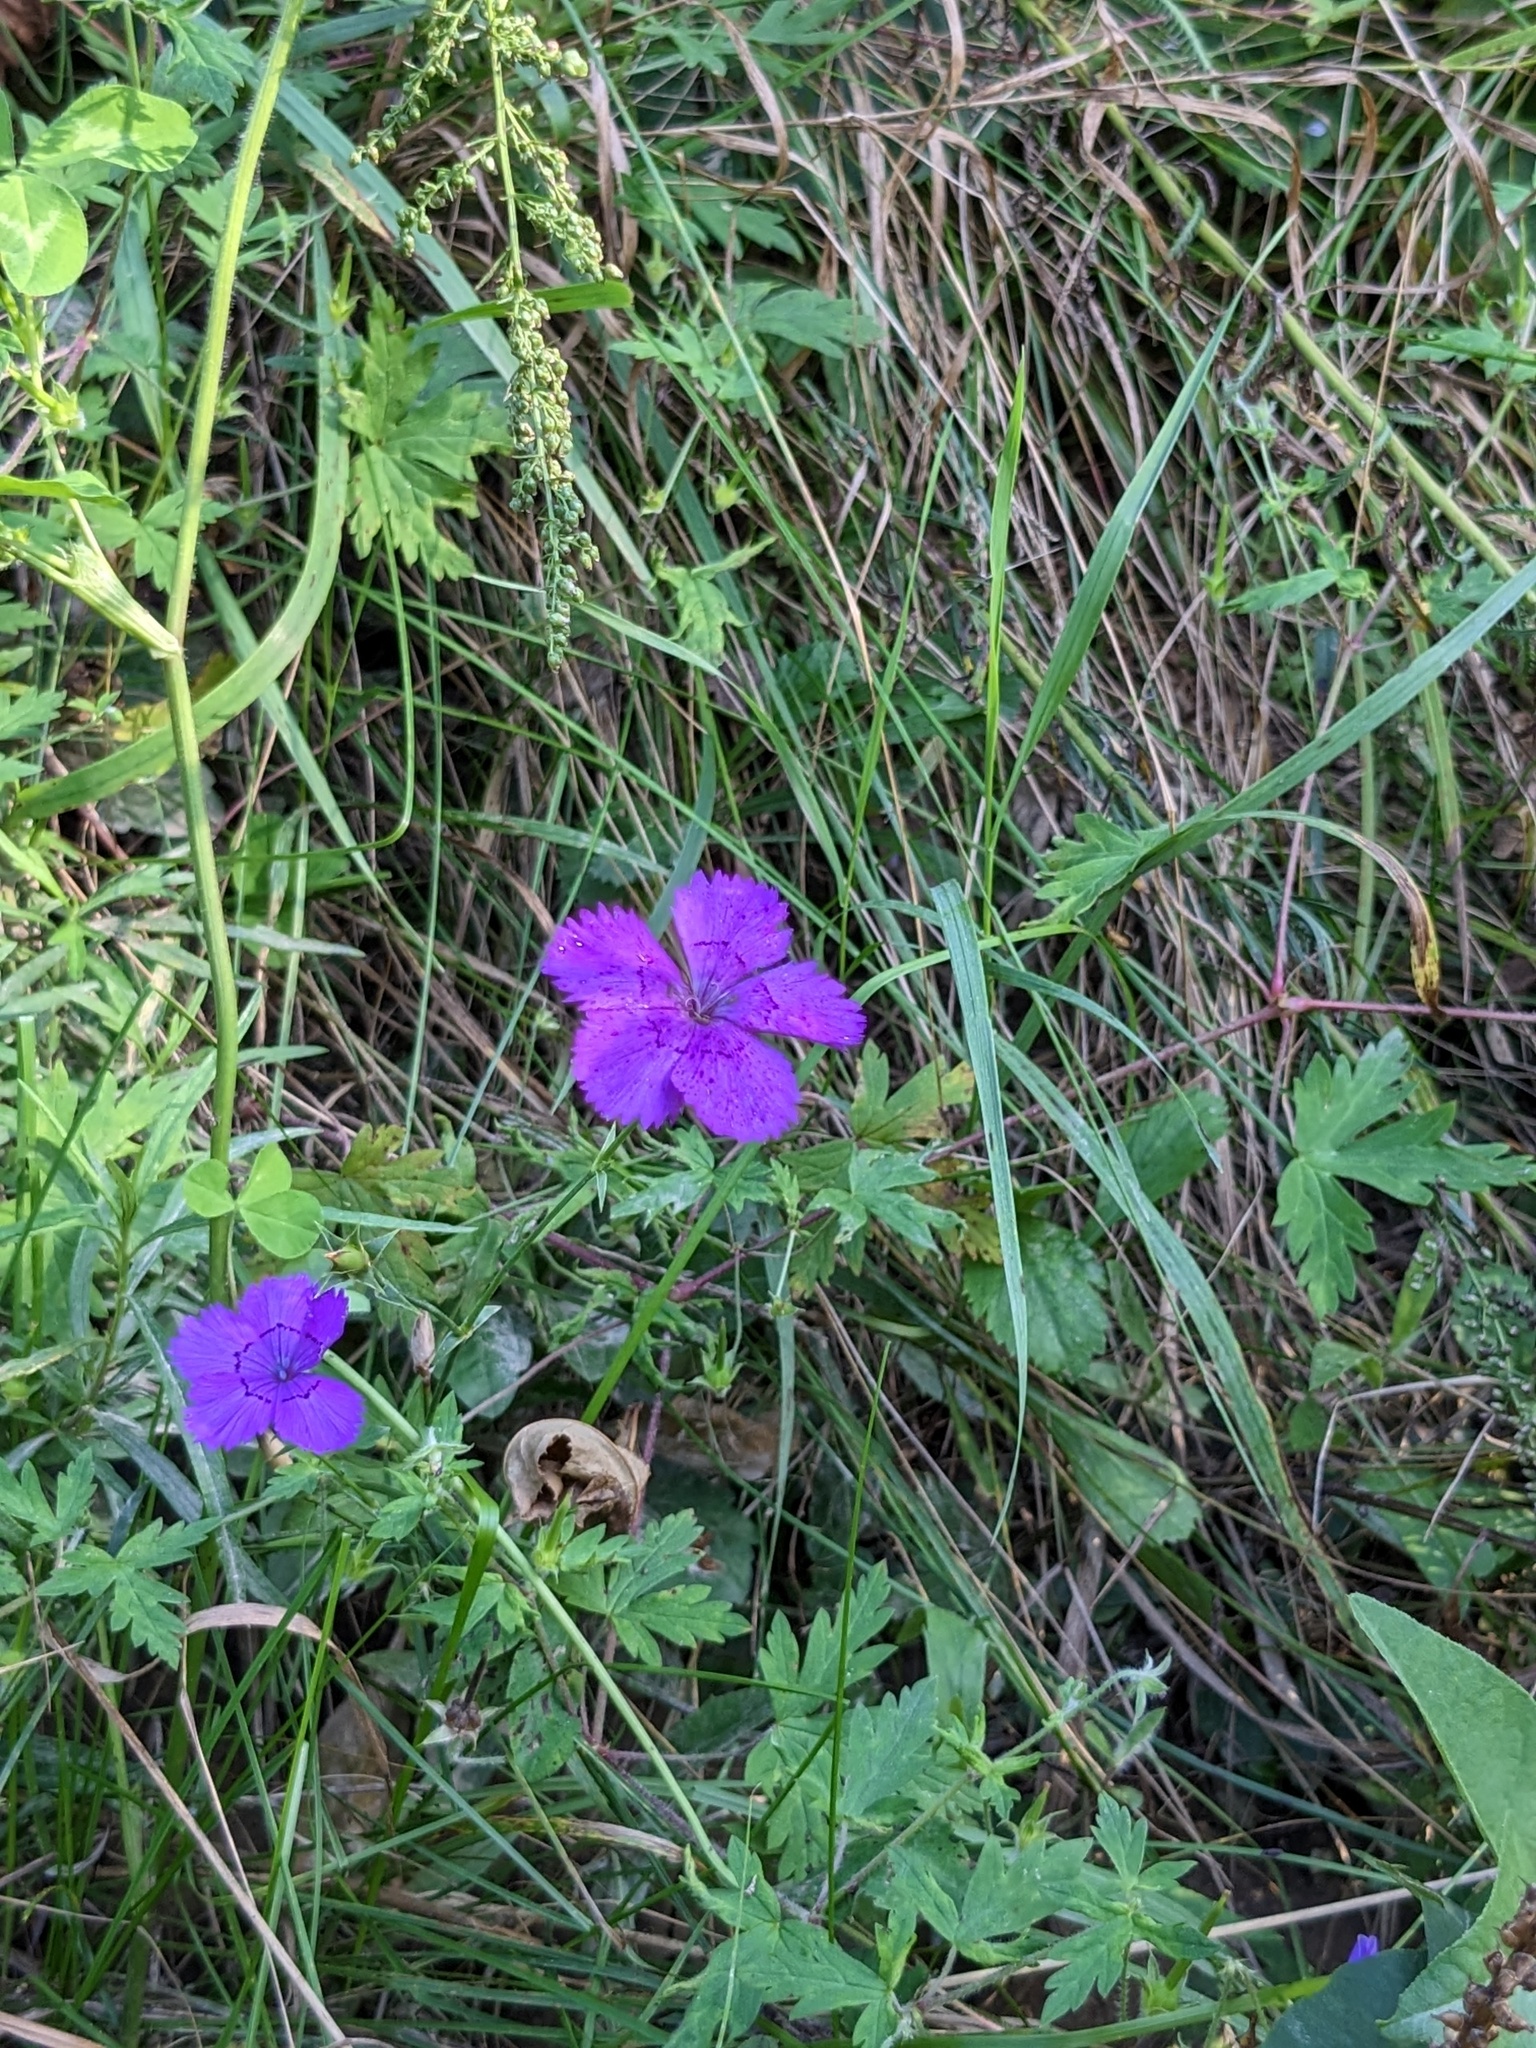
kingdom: Plantae
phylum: Tracheophyta
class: Magnoliopsida
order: Caryophyllales
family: Caryophyllaceae
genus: Dianthus
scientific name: Dianthus chinensis
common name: Rainbow pink
